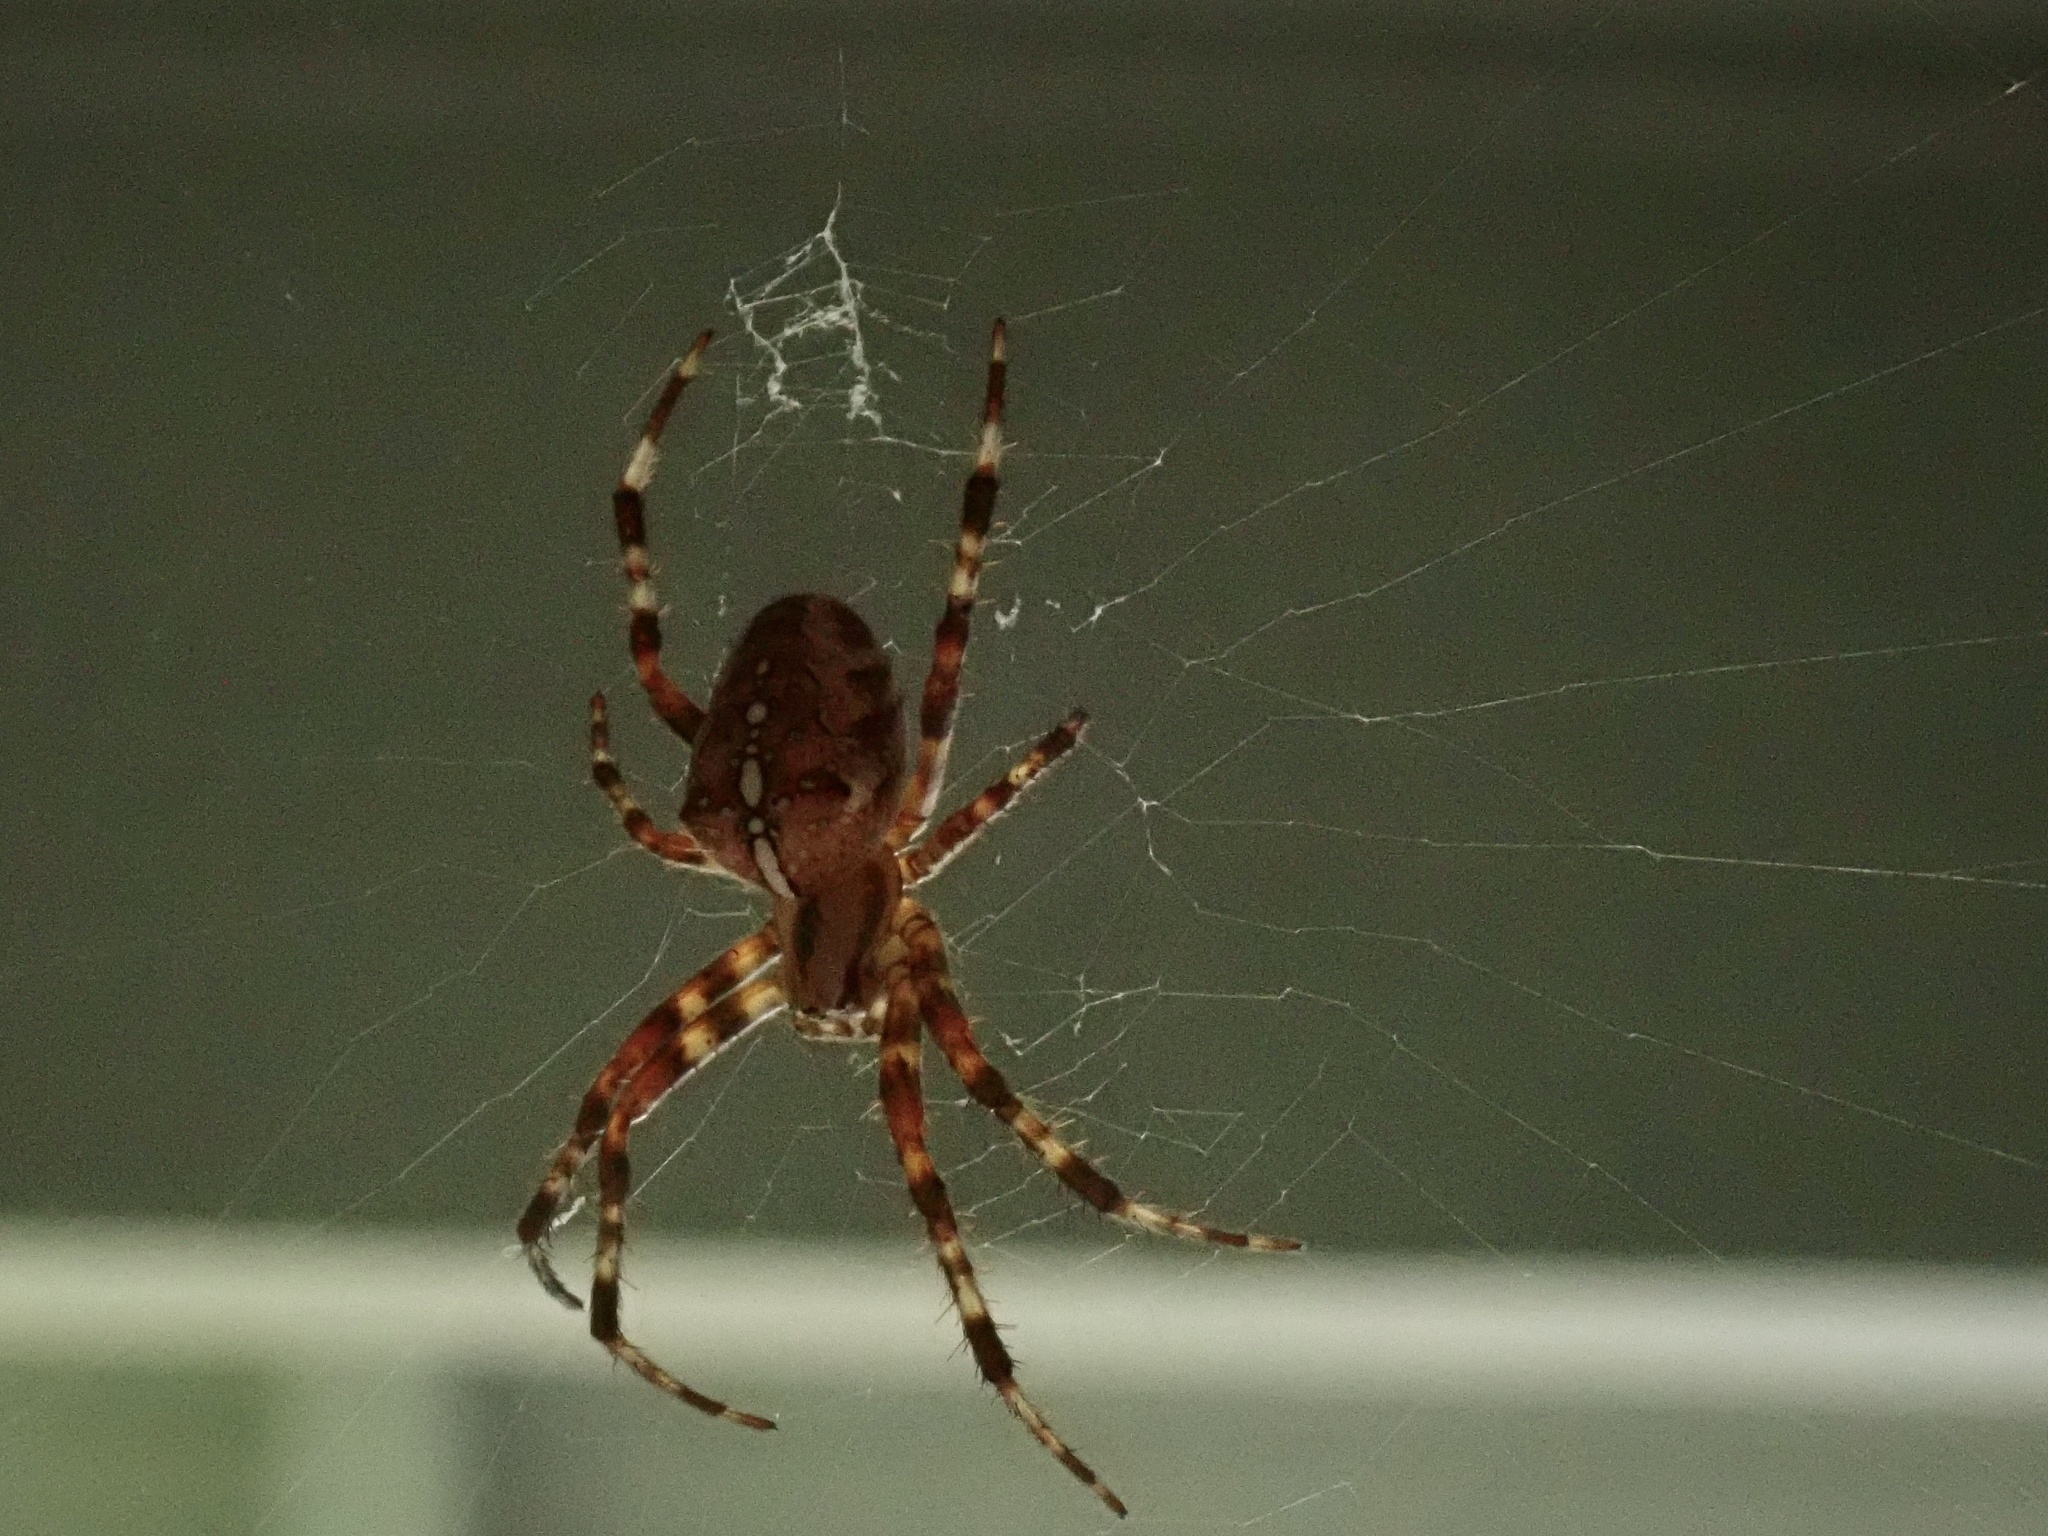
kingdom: Animalia
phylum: Arthropoda
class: Arachnida
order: Araneae
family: Araneidae
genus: Araneus
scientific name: Araneus diadematus
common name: Cross orbweaver
